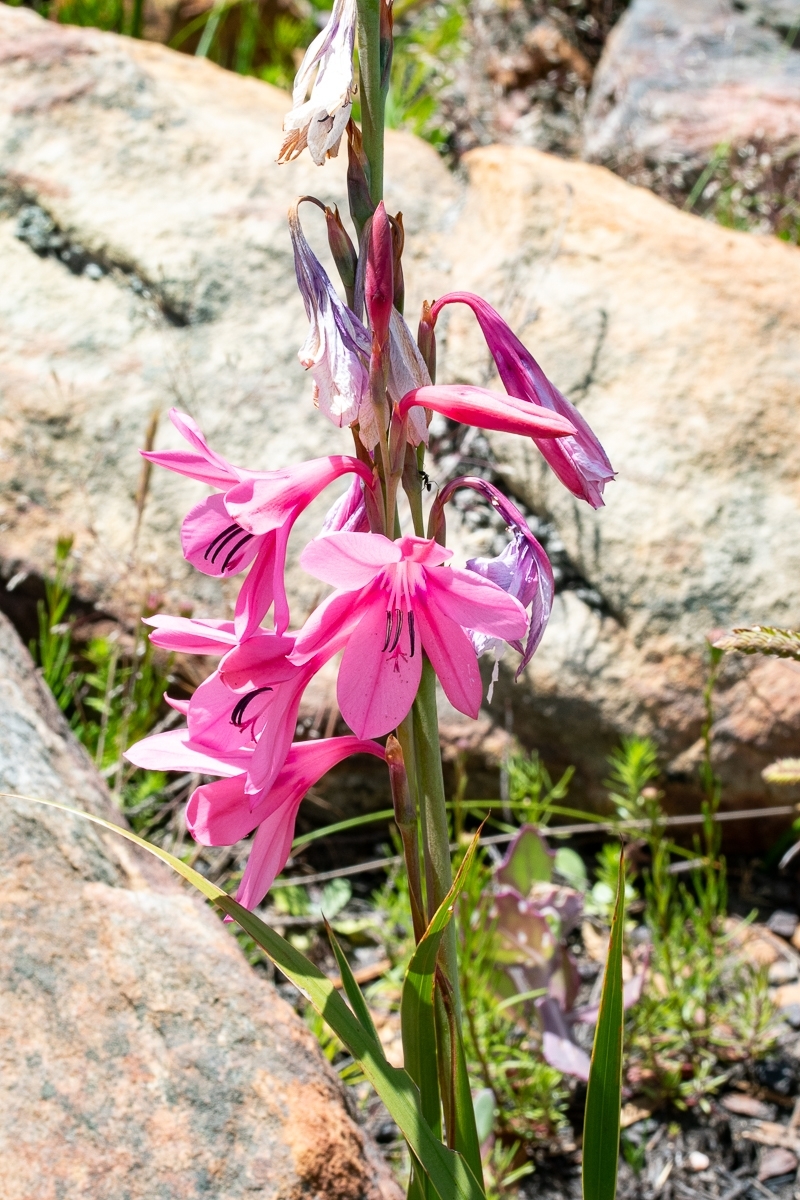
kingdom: Plantae
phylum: Tracheophyta
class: Liliopsida
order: Asparagales
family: Iridaceae
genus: Watsonia
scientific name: Watsonia borbonica
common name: Bugle-lily
